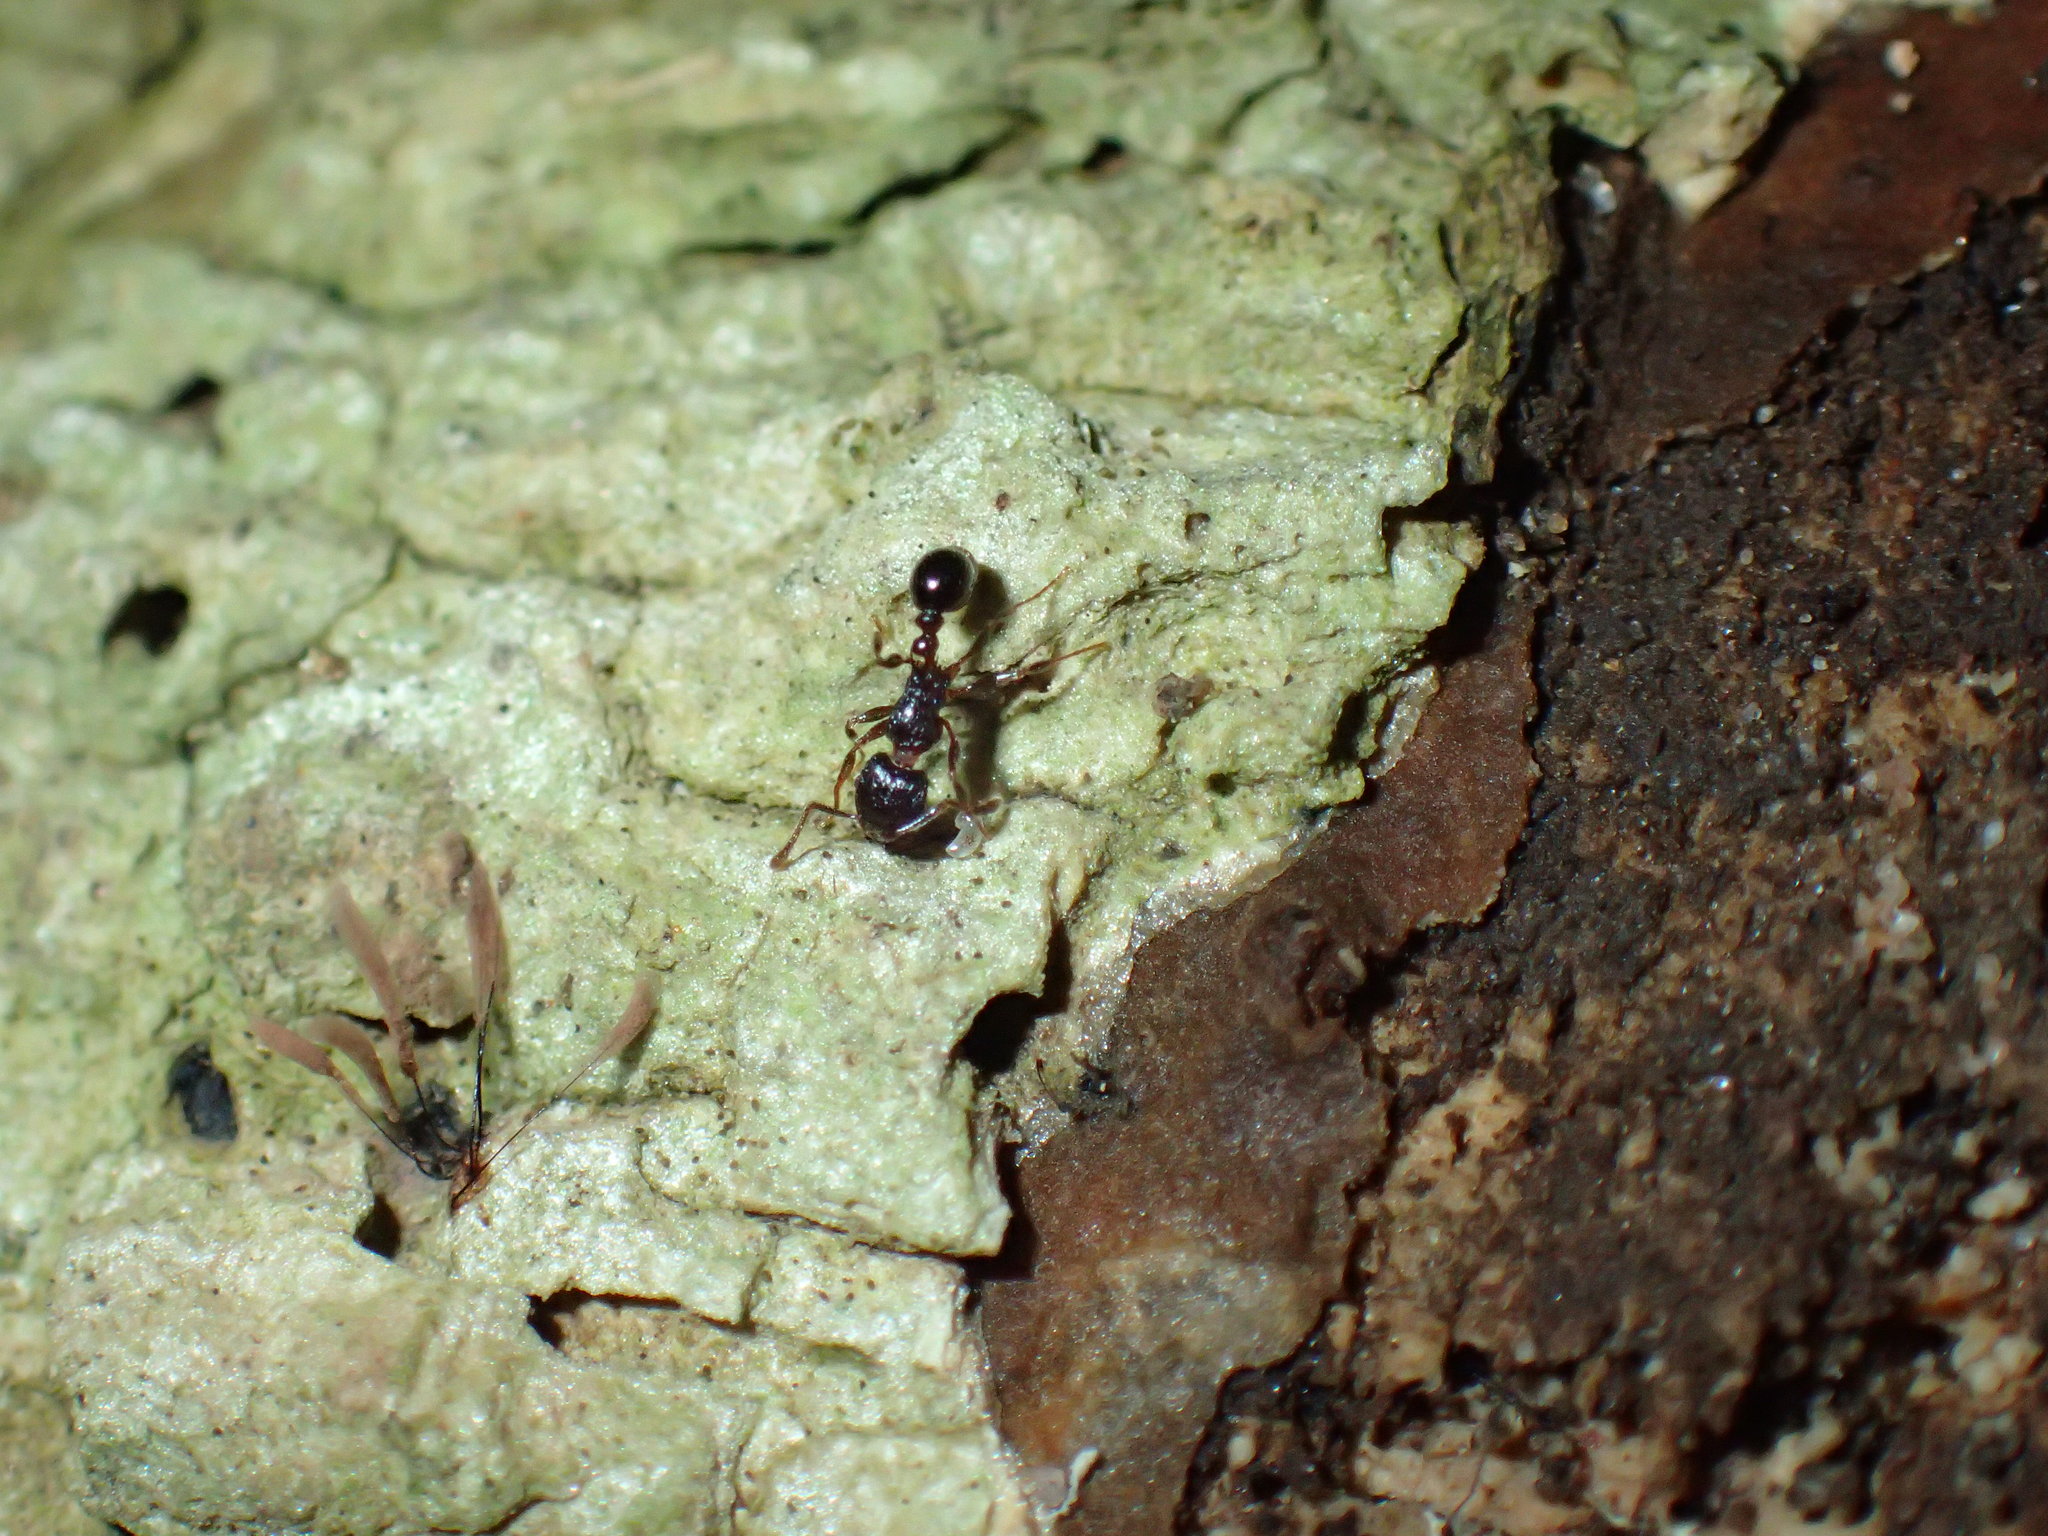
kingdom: Animalia
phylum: Arthropoda
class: Insecta
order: Hymenoptera
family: Formicidae
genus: Tetramorium
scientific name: Tetramorium grassii
